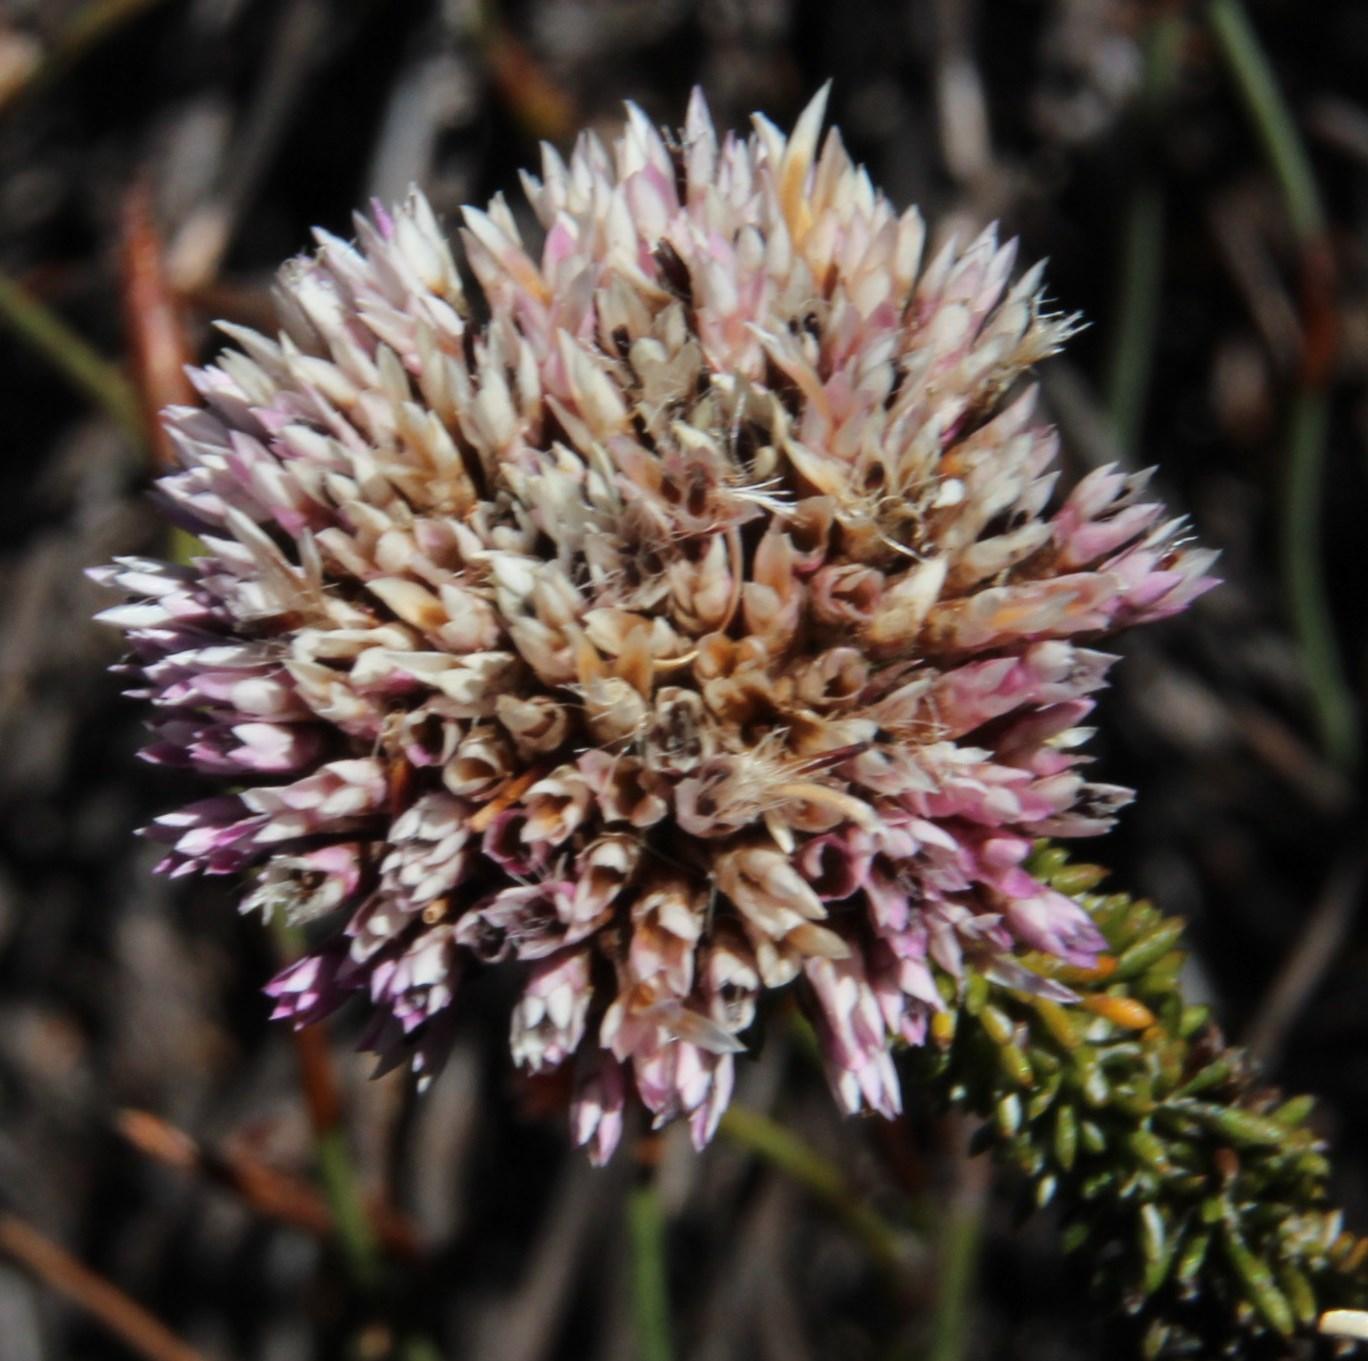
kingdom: Plantae
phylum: Tracheophyta
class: Magnoliopsida
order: Asterales
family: Asteraceae
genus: Metalasia
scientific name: Metalasia phillipsii
